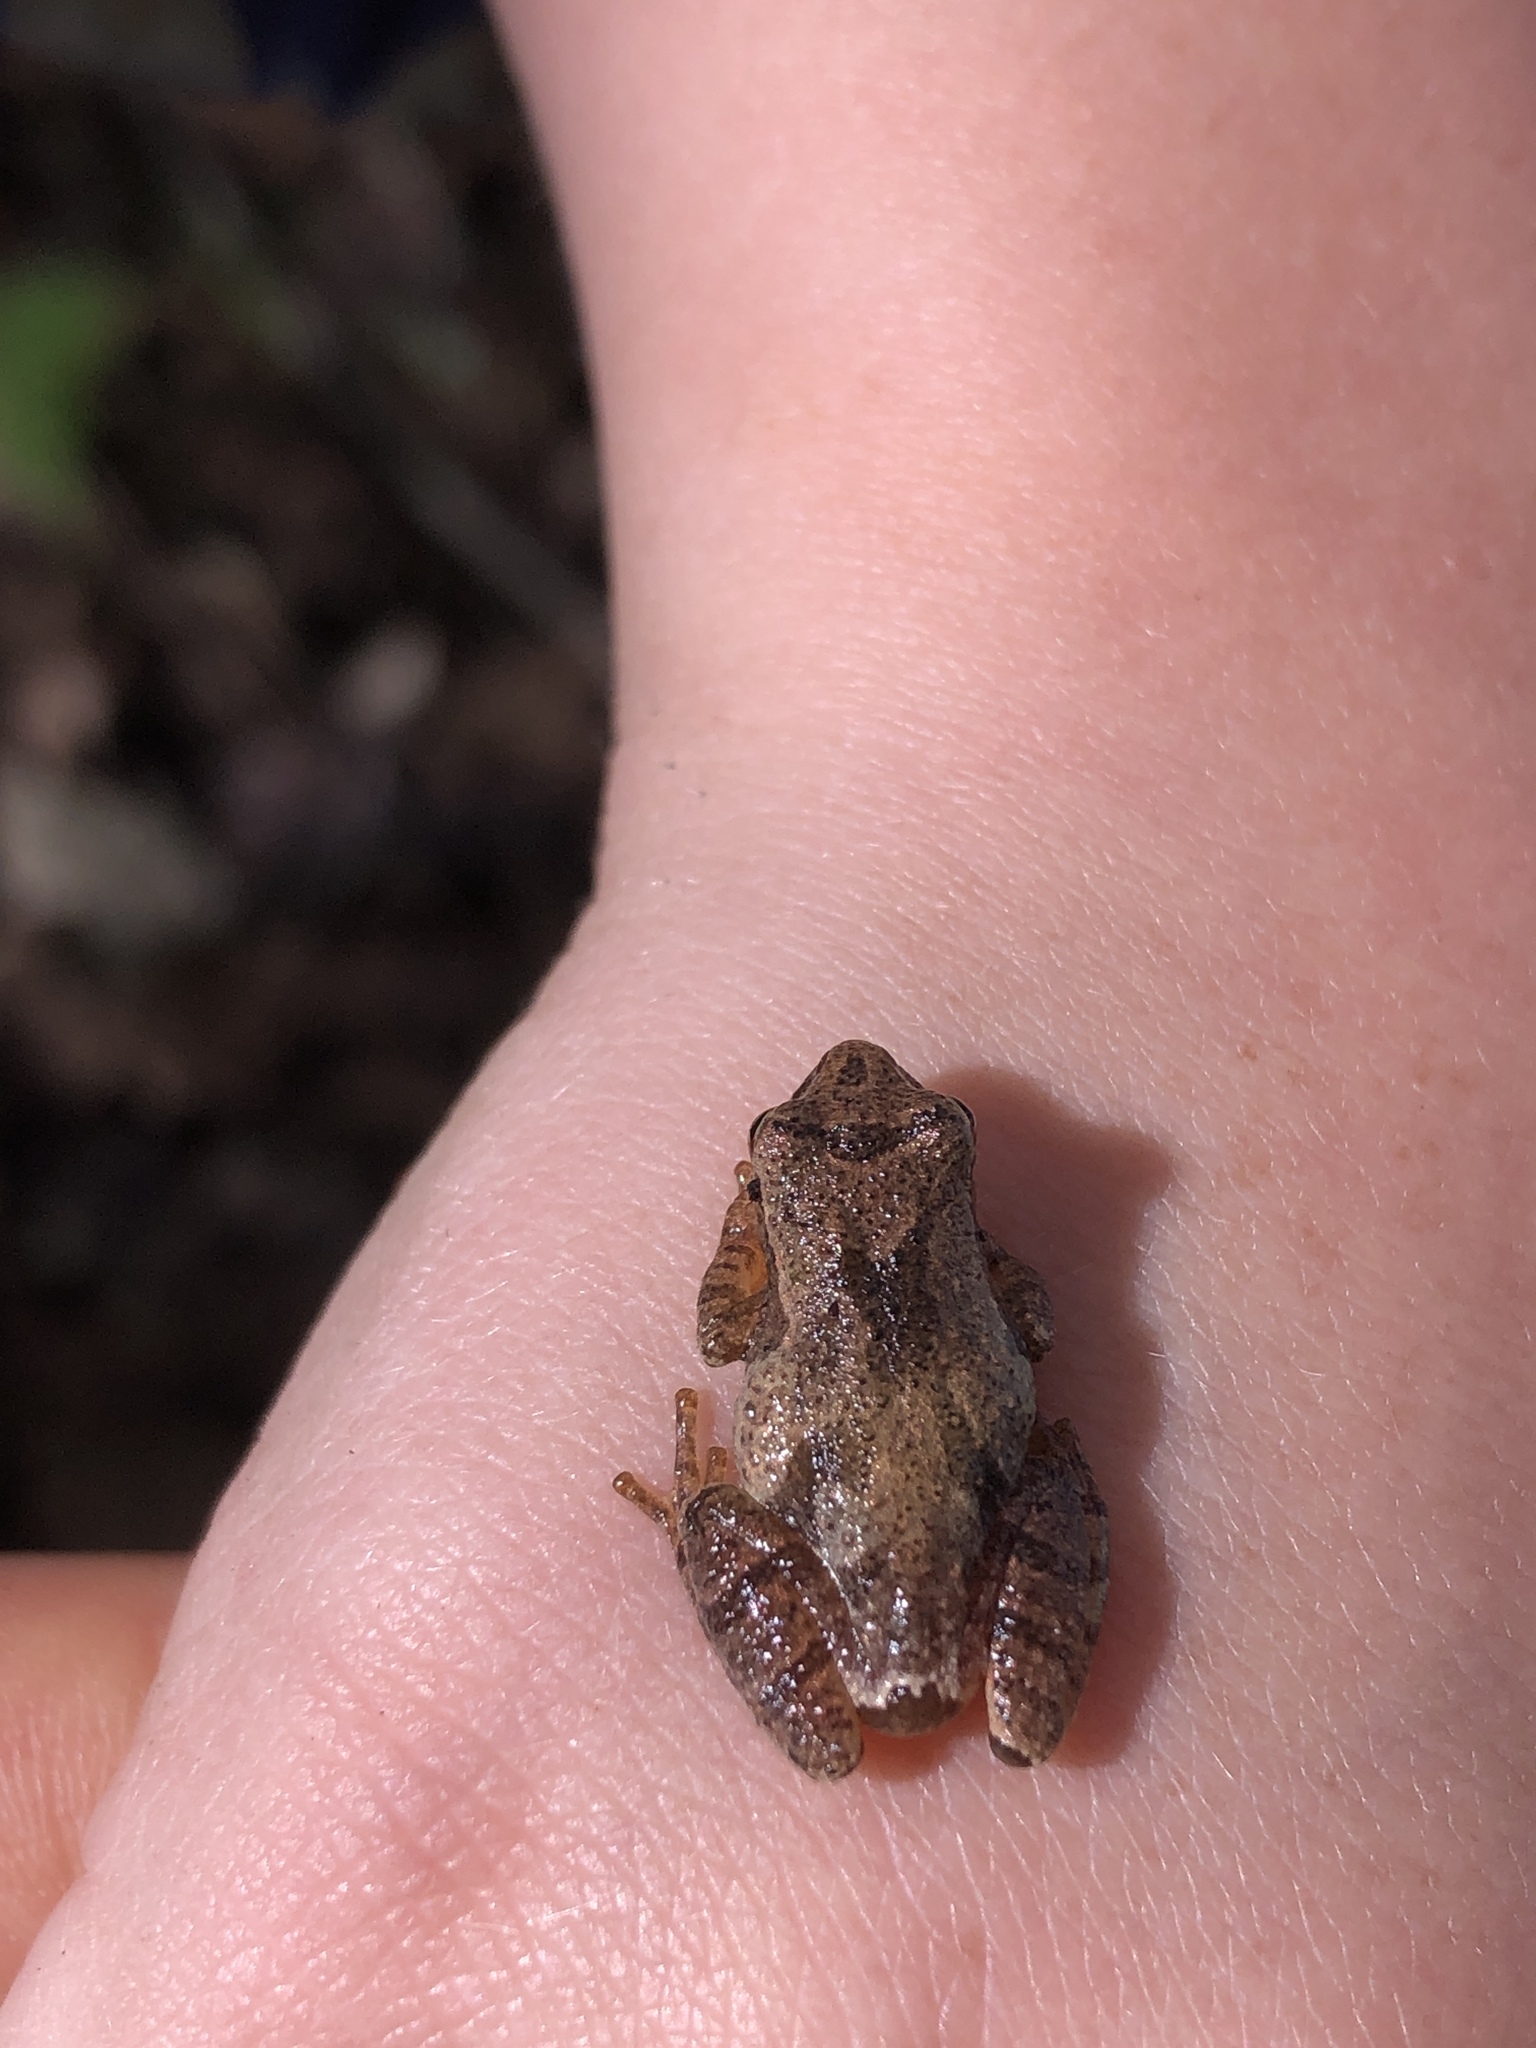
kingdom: Animalia
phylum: Chordata
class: Amphibia
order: Anura
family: Hylidae
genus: Pseudacris
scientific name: Pseudacris crucifer
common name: Spring peeper
